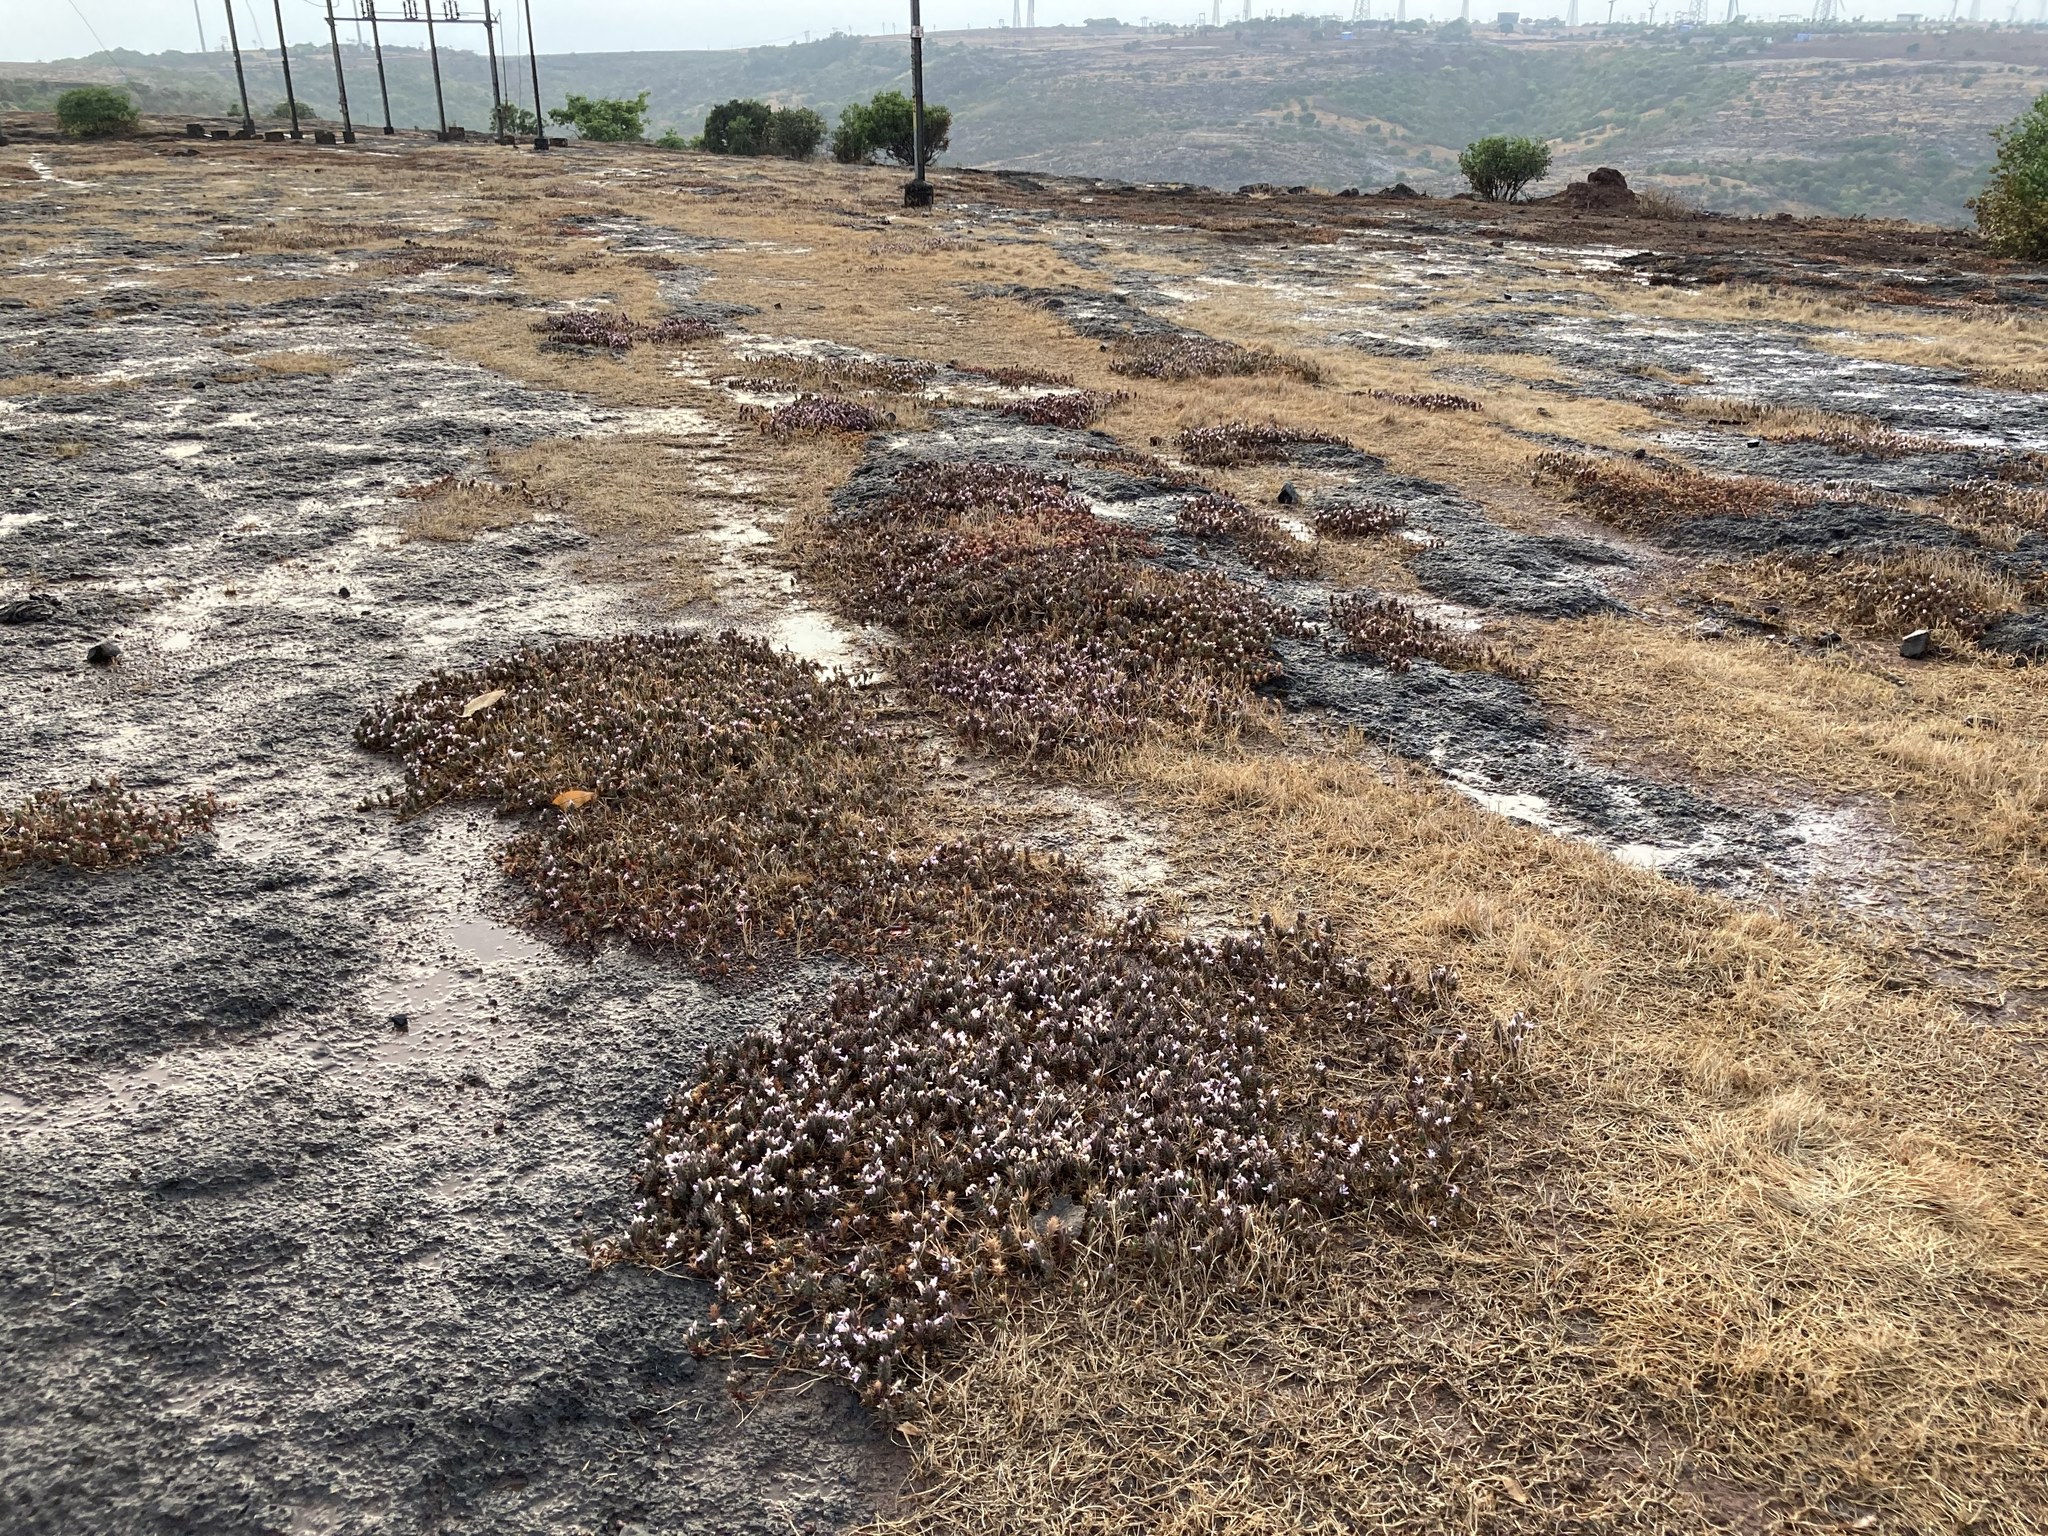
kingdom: Plantae
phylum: Tracheophyta
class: Magnoliopsida
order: Lamiales
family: Acanthaceae
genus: Lepidagathis
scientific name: Lepidagathis mahakassapae
